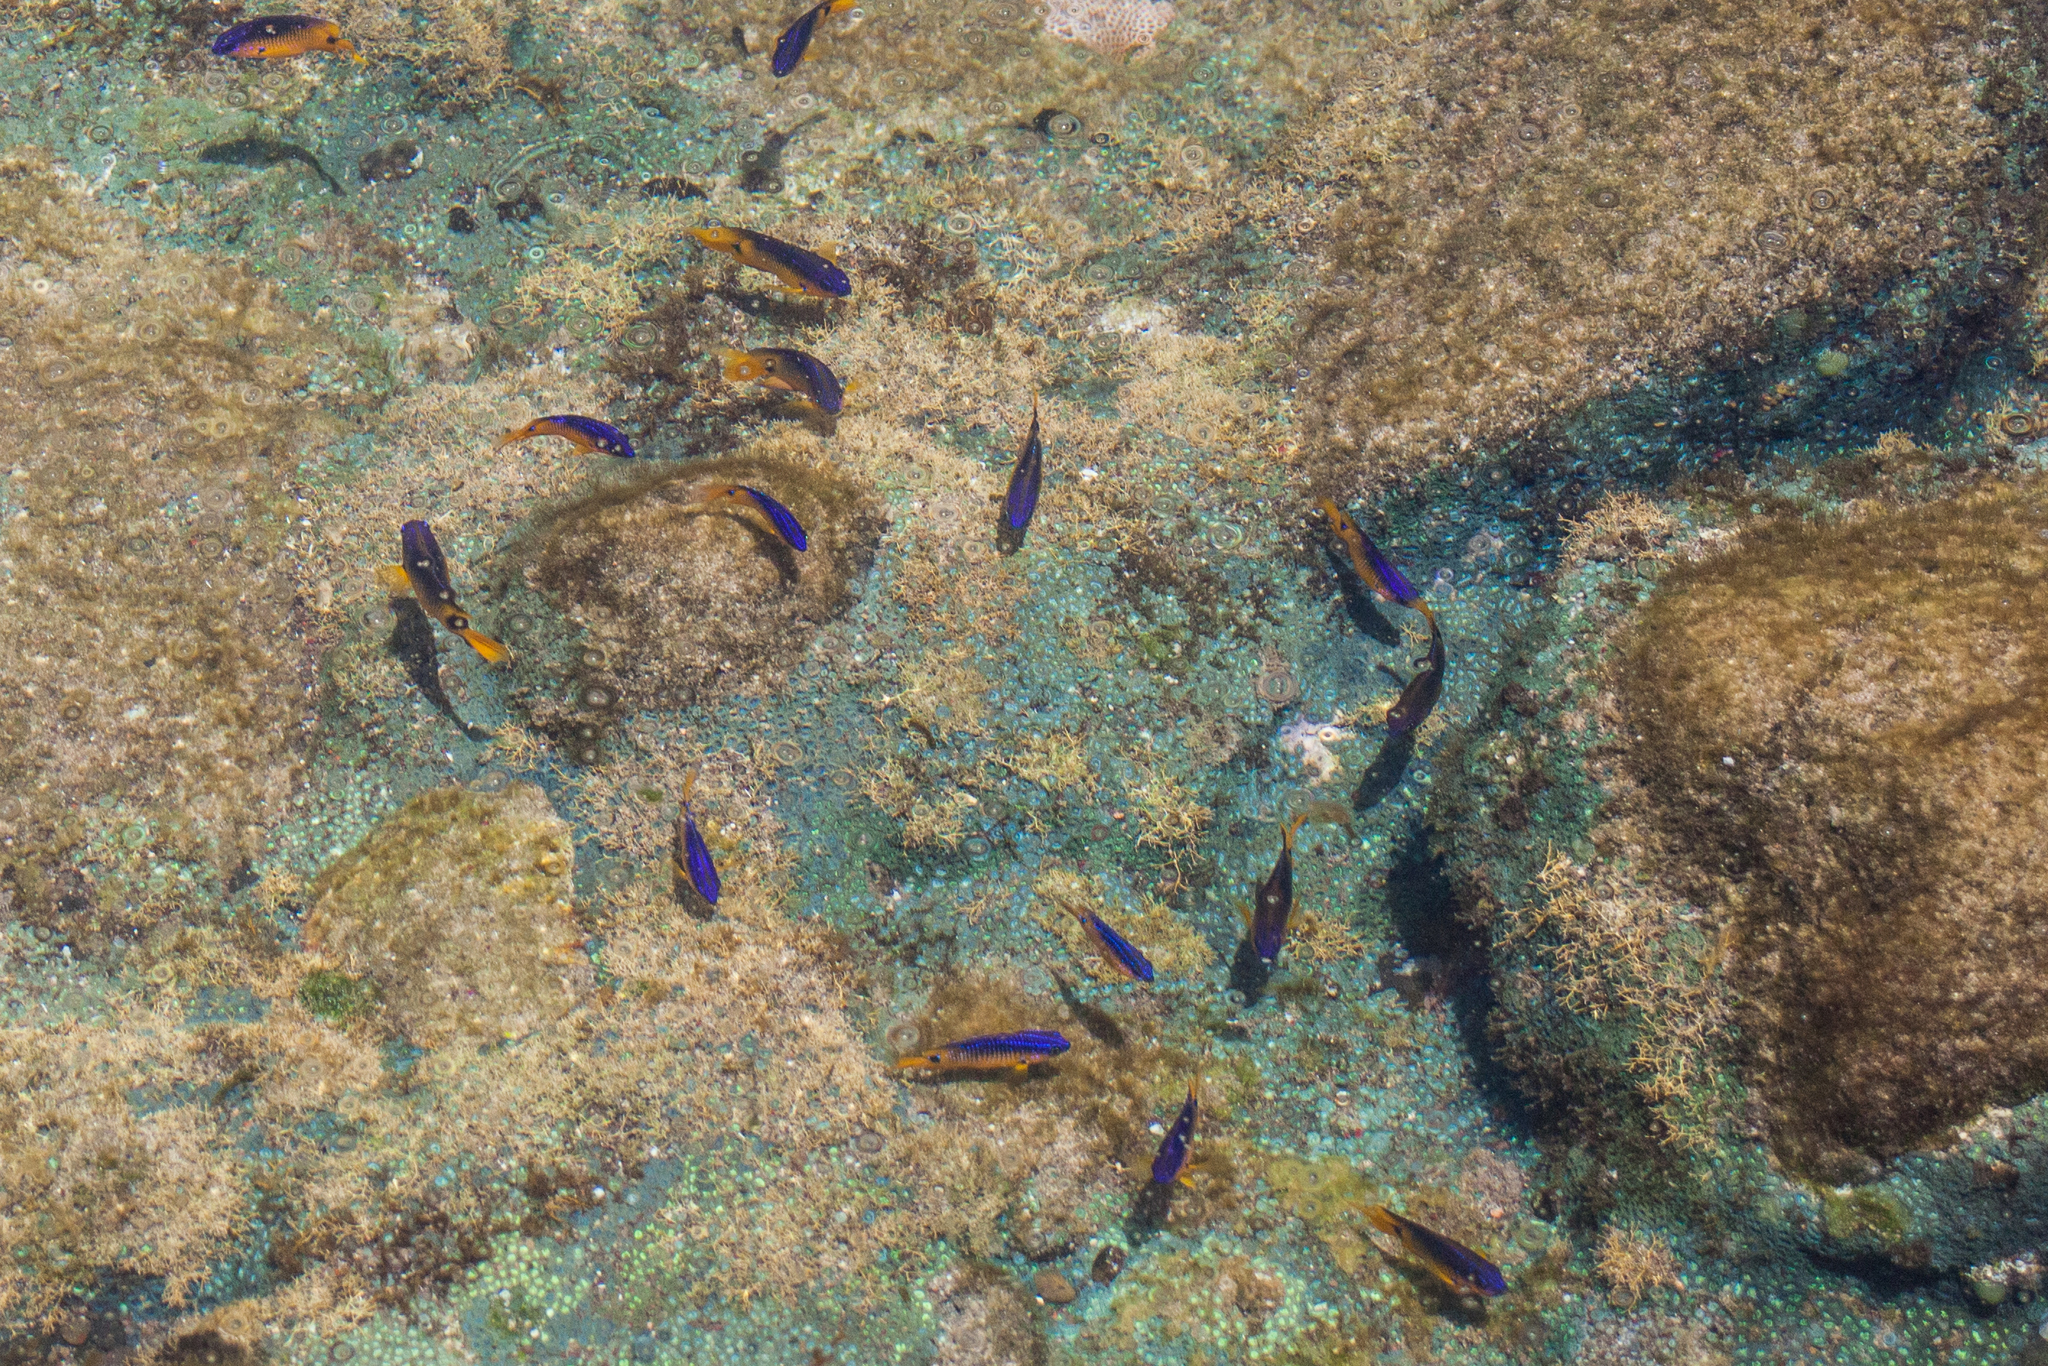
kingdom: Animalia
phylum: Chordata
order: Perciformes
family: Pomacentridae
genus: Stegastes
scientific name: Stegastes rocasensis
